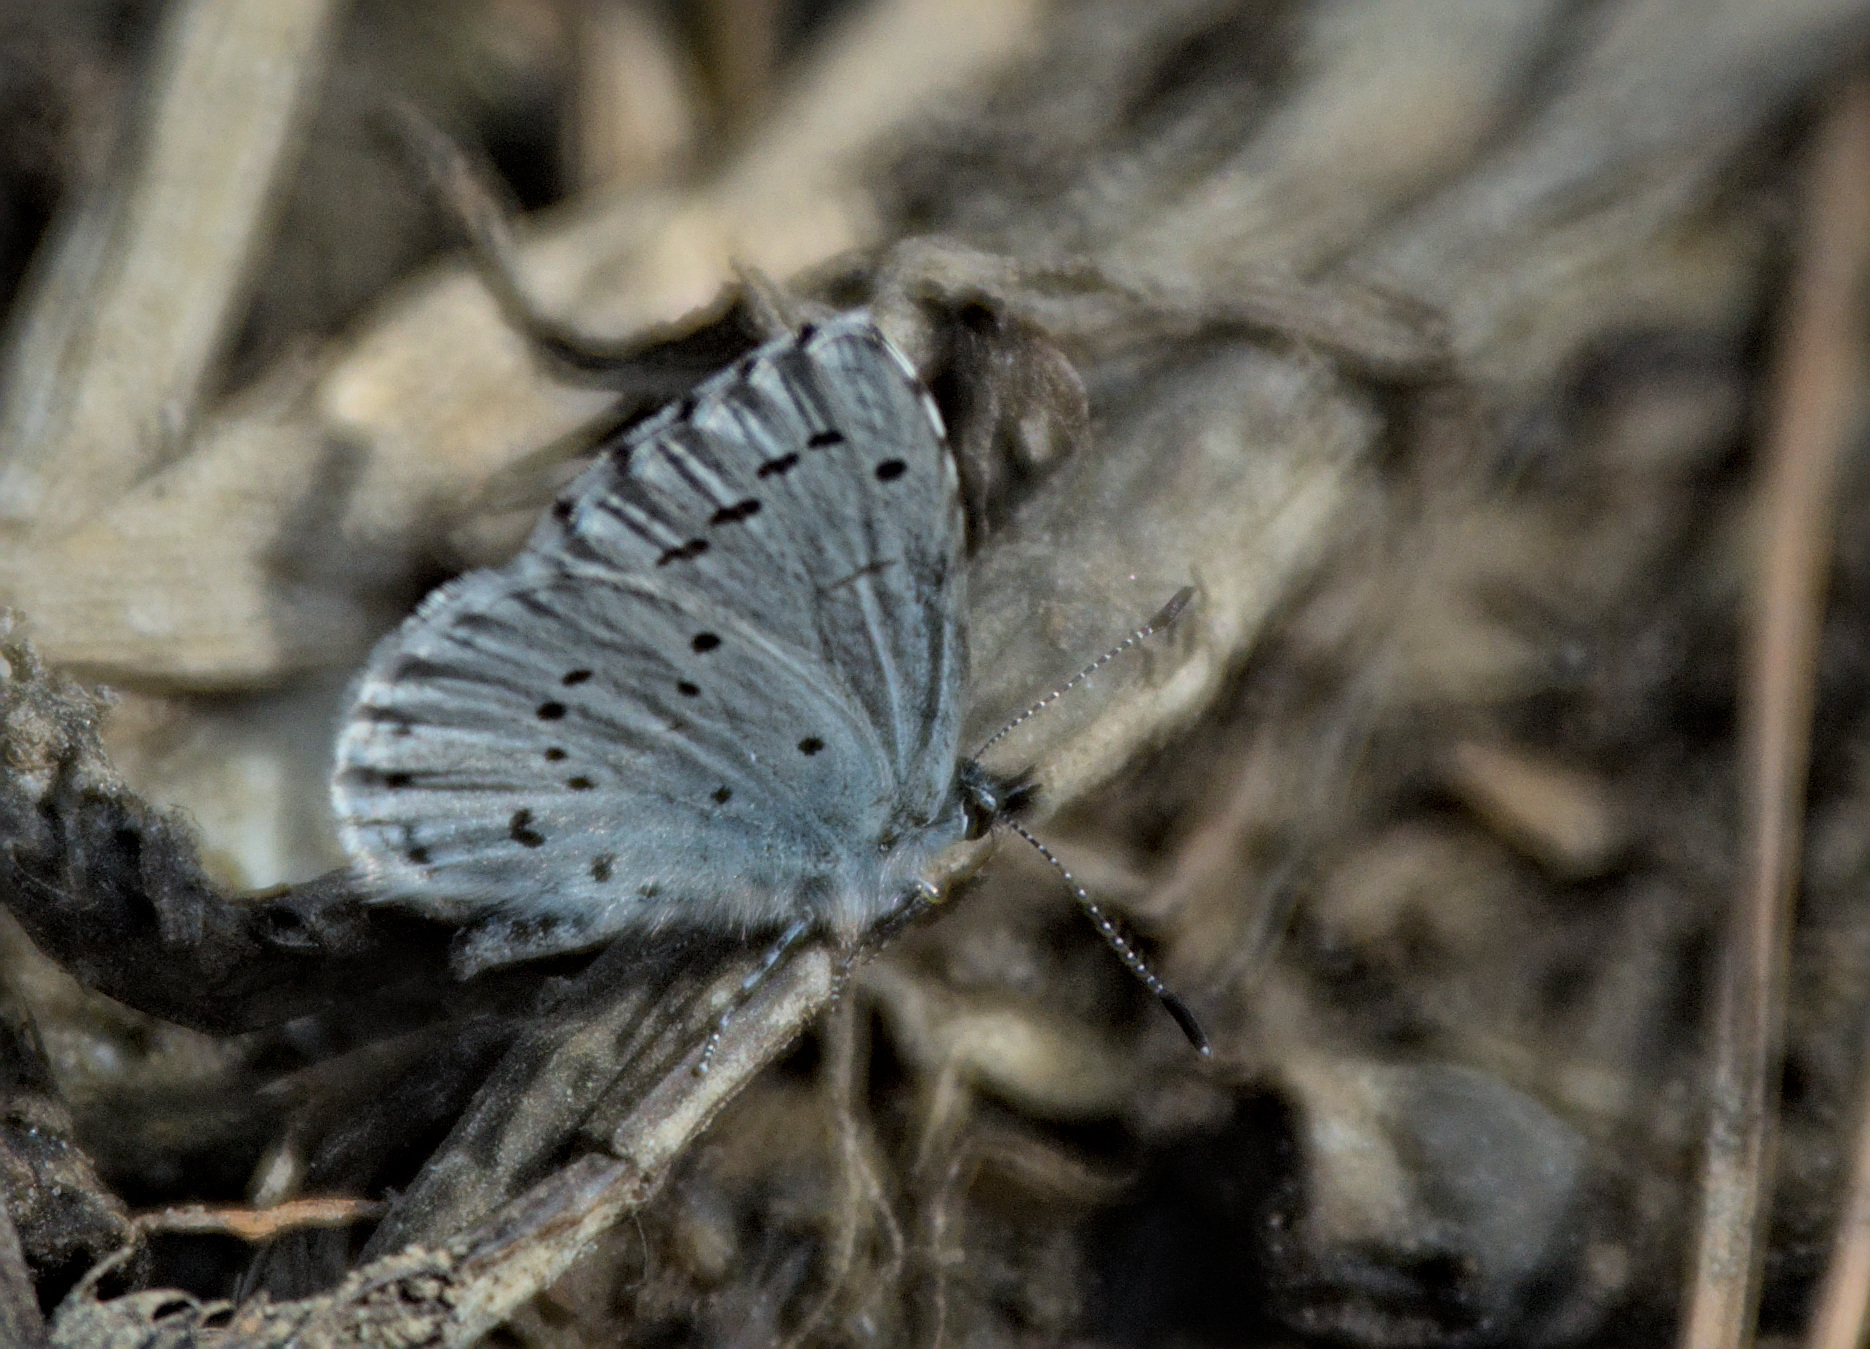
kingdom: Animalia
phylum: Arthropoda
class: Insecta
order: Lepidoptera
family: Lycaenidae
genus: Celastrina
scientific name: Celastrina argiolus
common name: Holly blue
